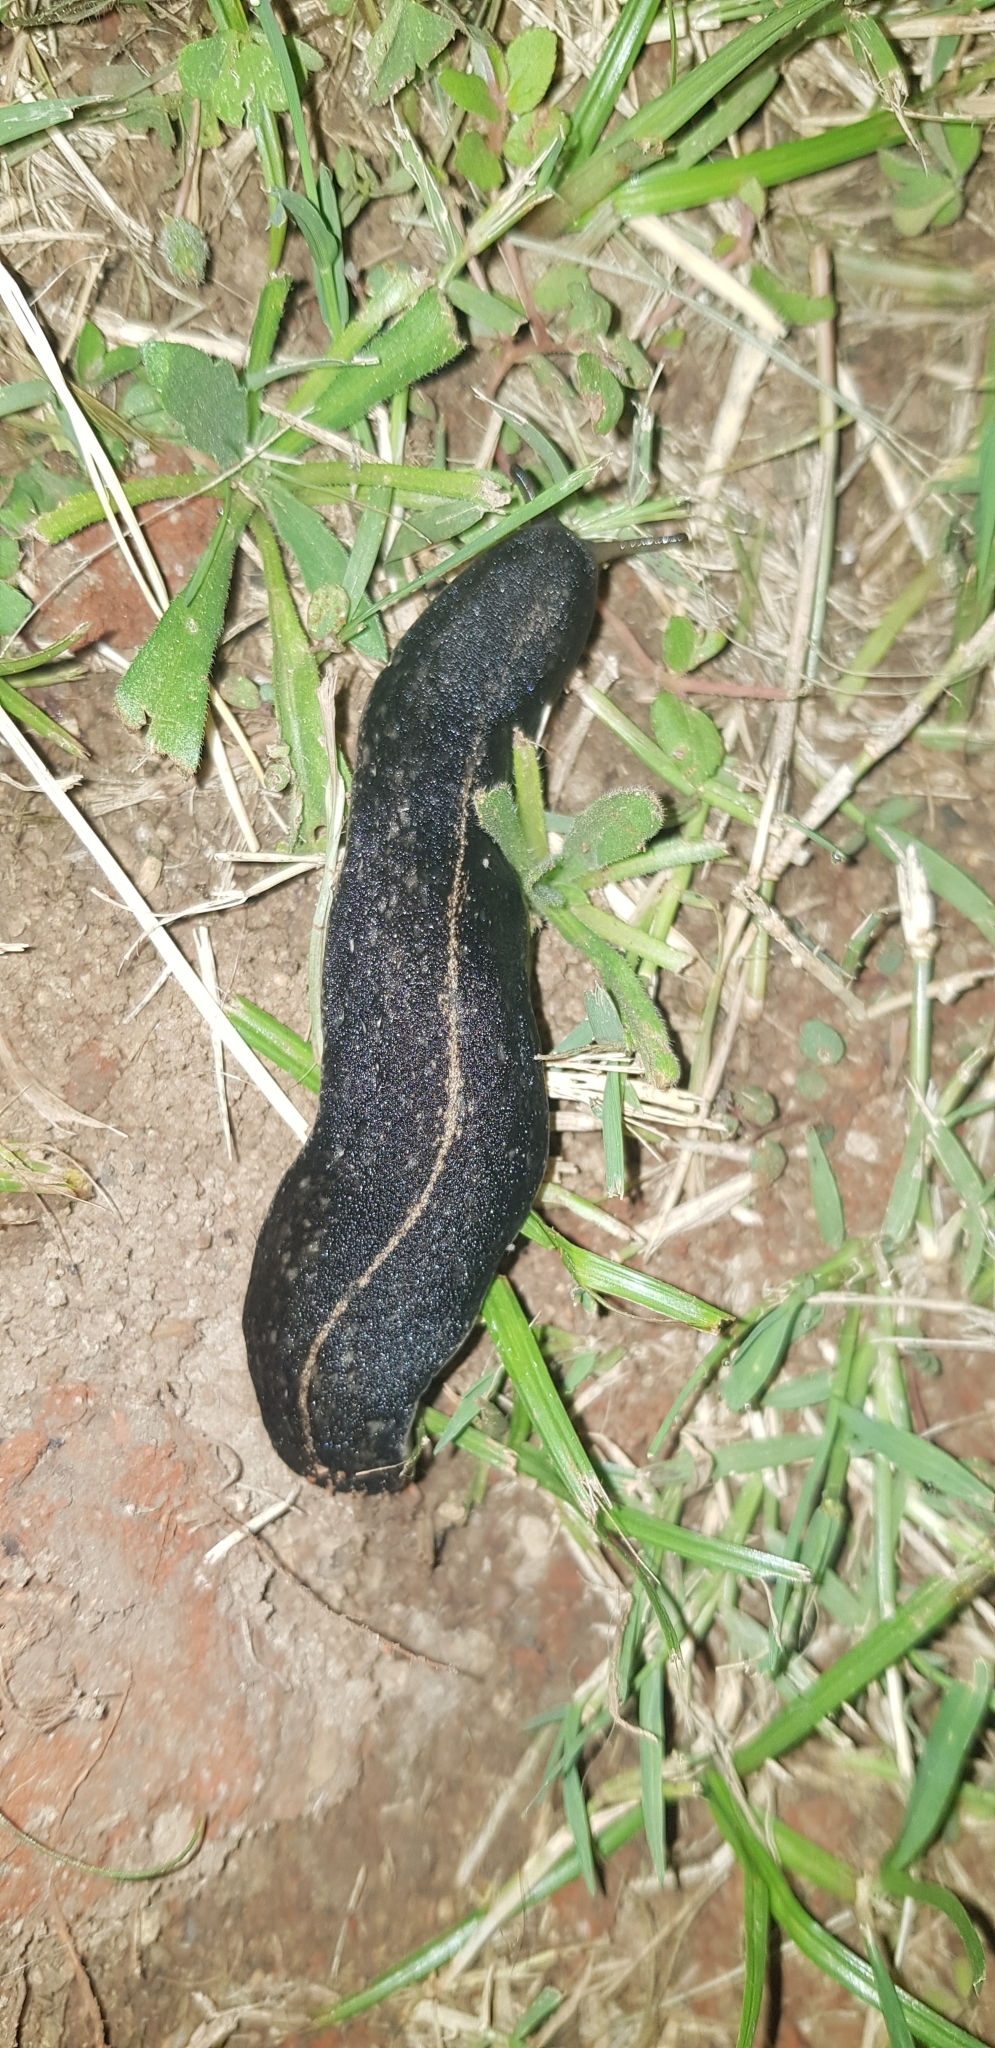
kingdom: Animalia
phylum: Mollusca
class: Gastropoda
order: Systellommatophora
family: Veronicellidae
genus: Laevicaulis
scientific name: Laevicaulis alte
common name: Tropical leatherleaf
